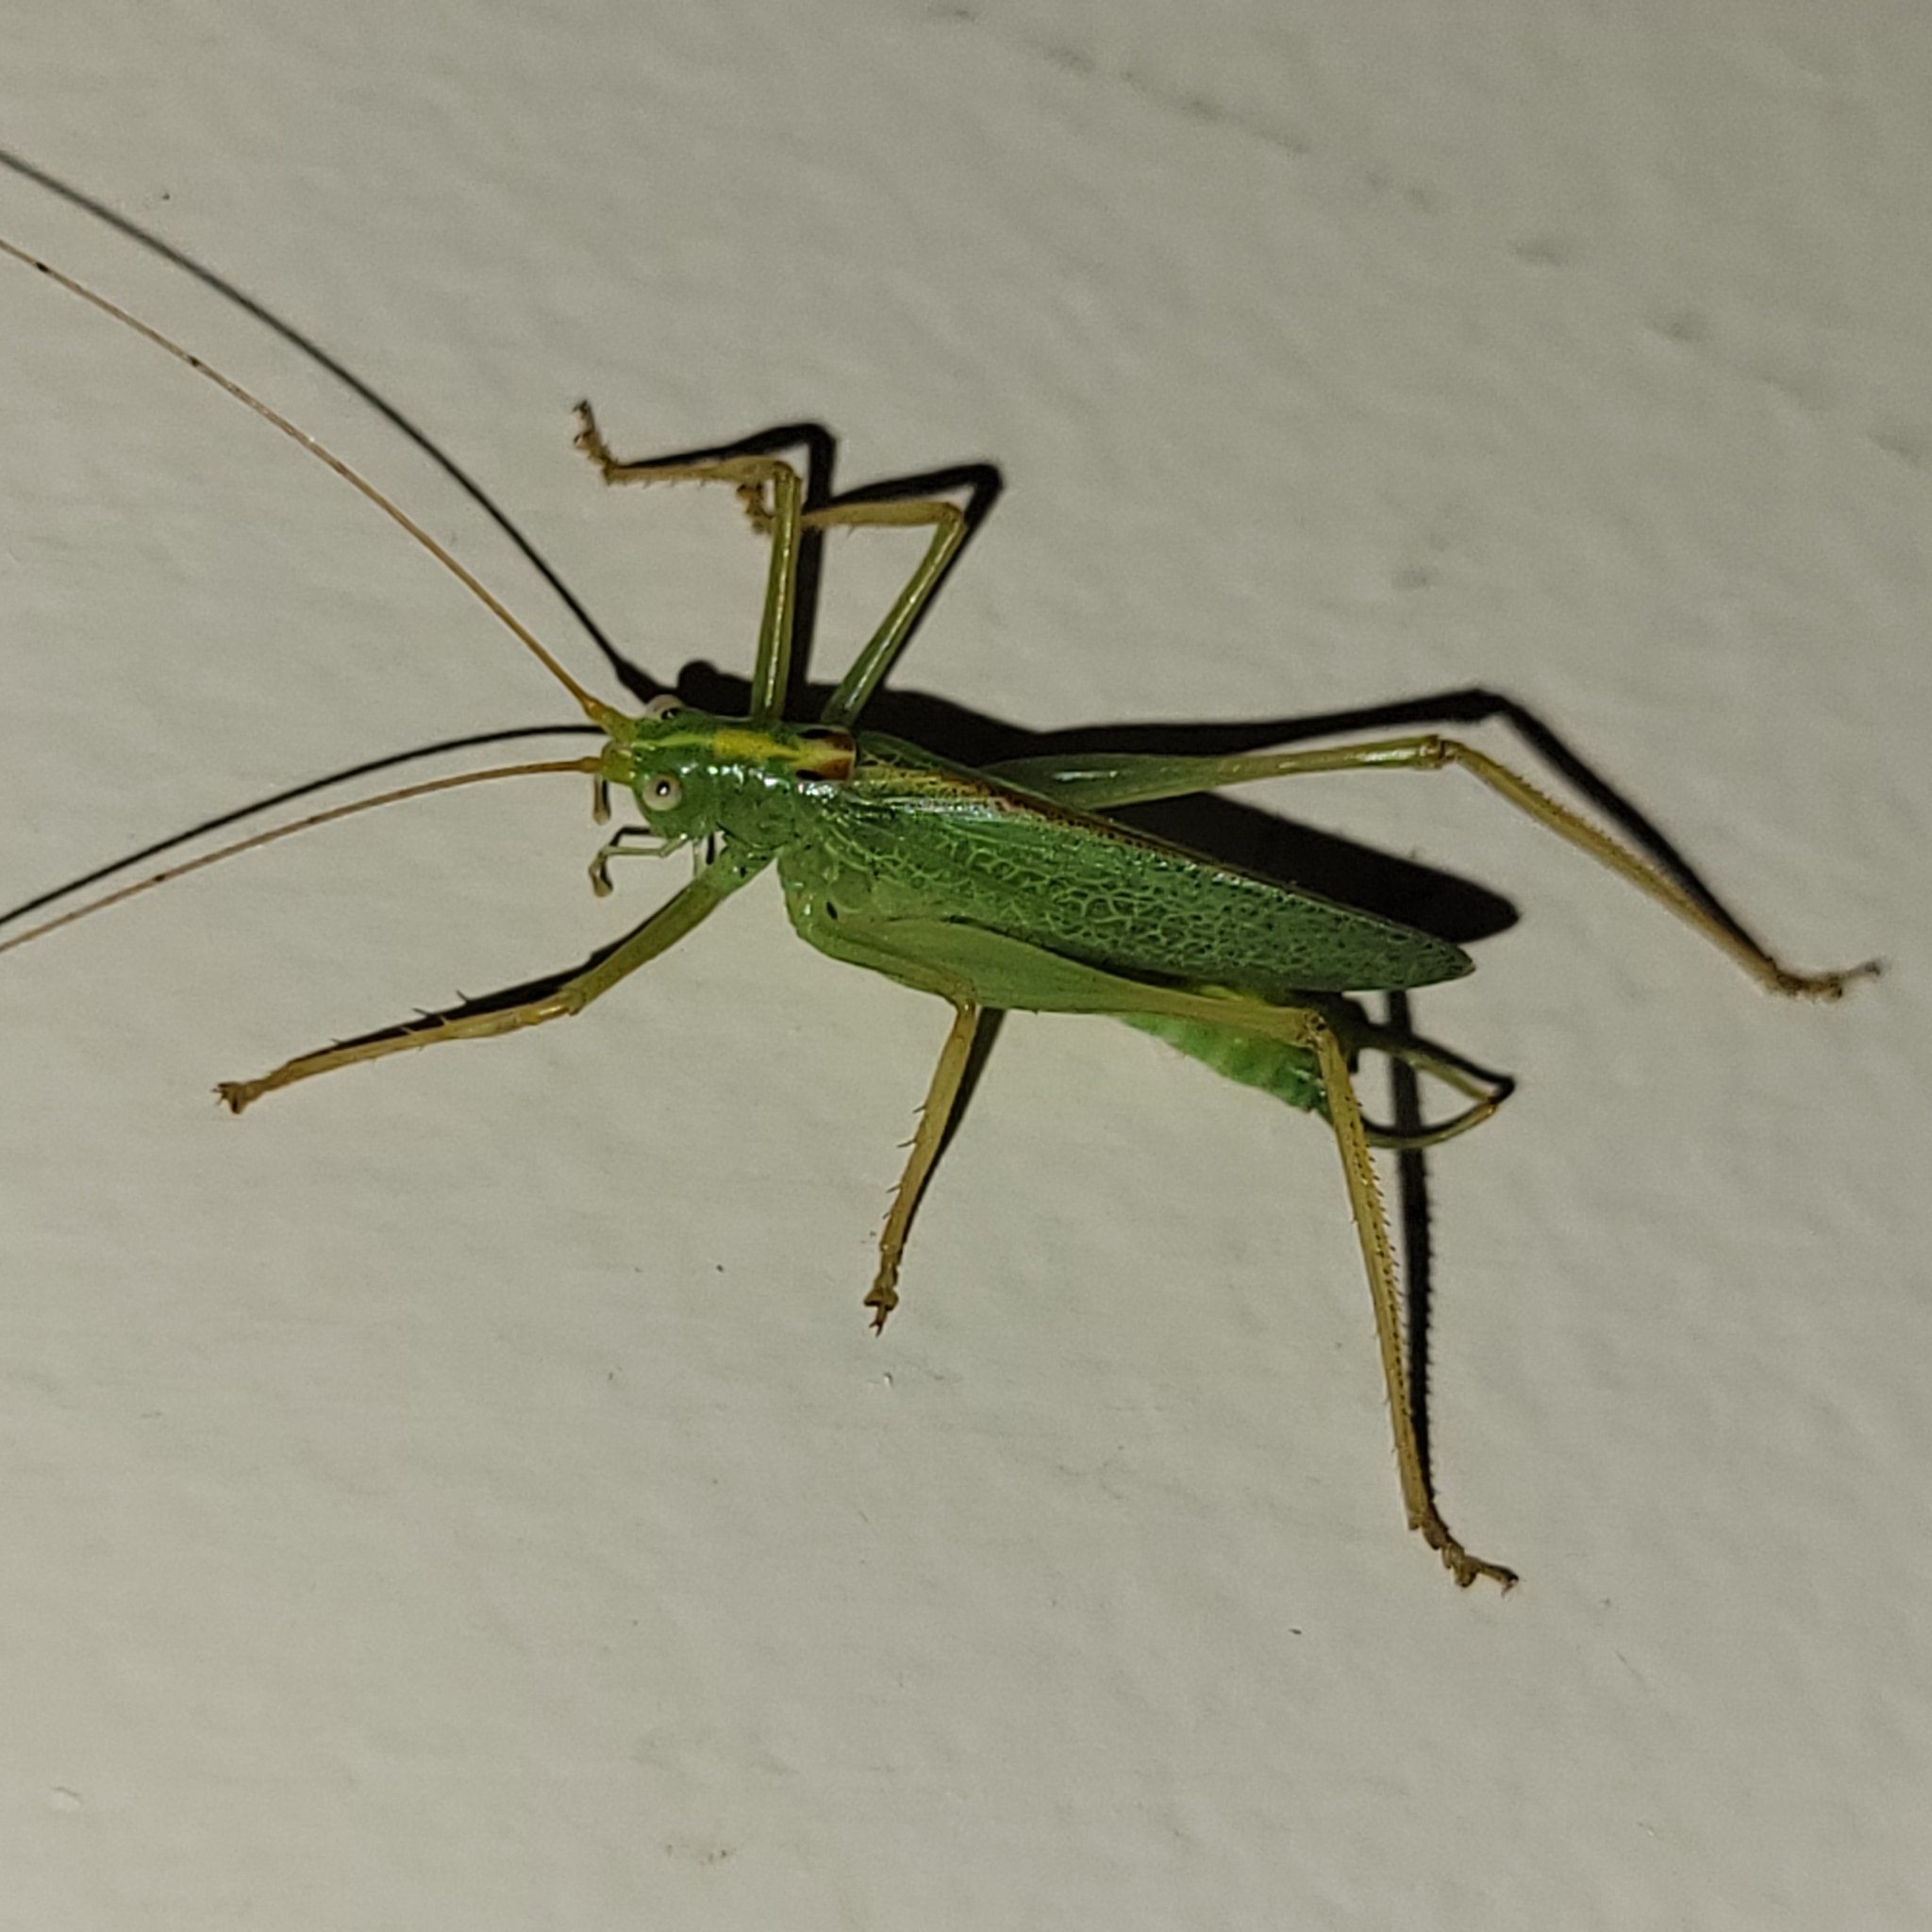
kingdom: Animalia
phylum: Arthropoda
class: Insecta
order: Orthoptera
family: Tettigoniidae
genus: Meconema
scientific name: Meconema thalassinum
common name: Oak bush-cricket
